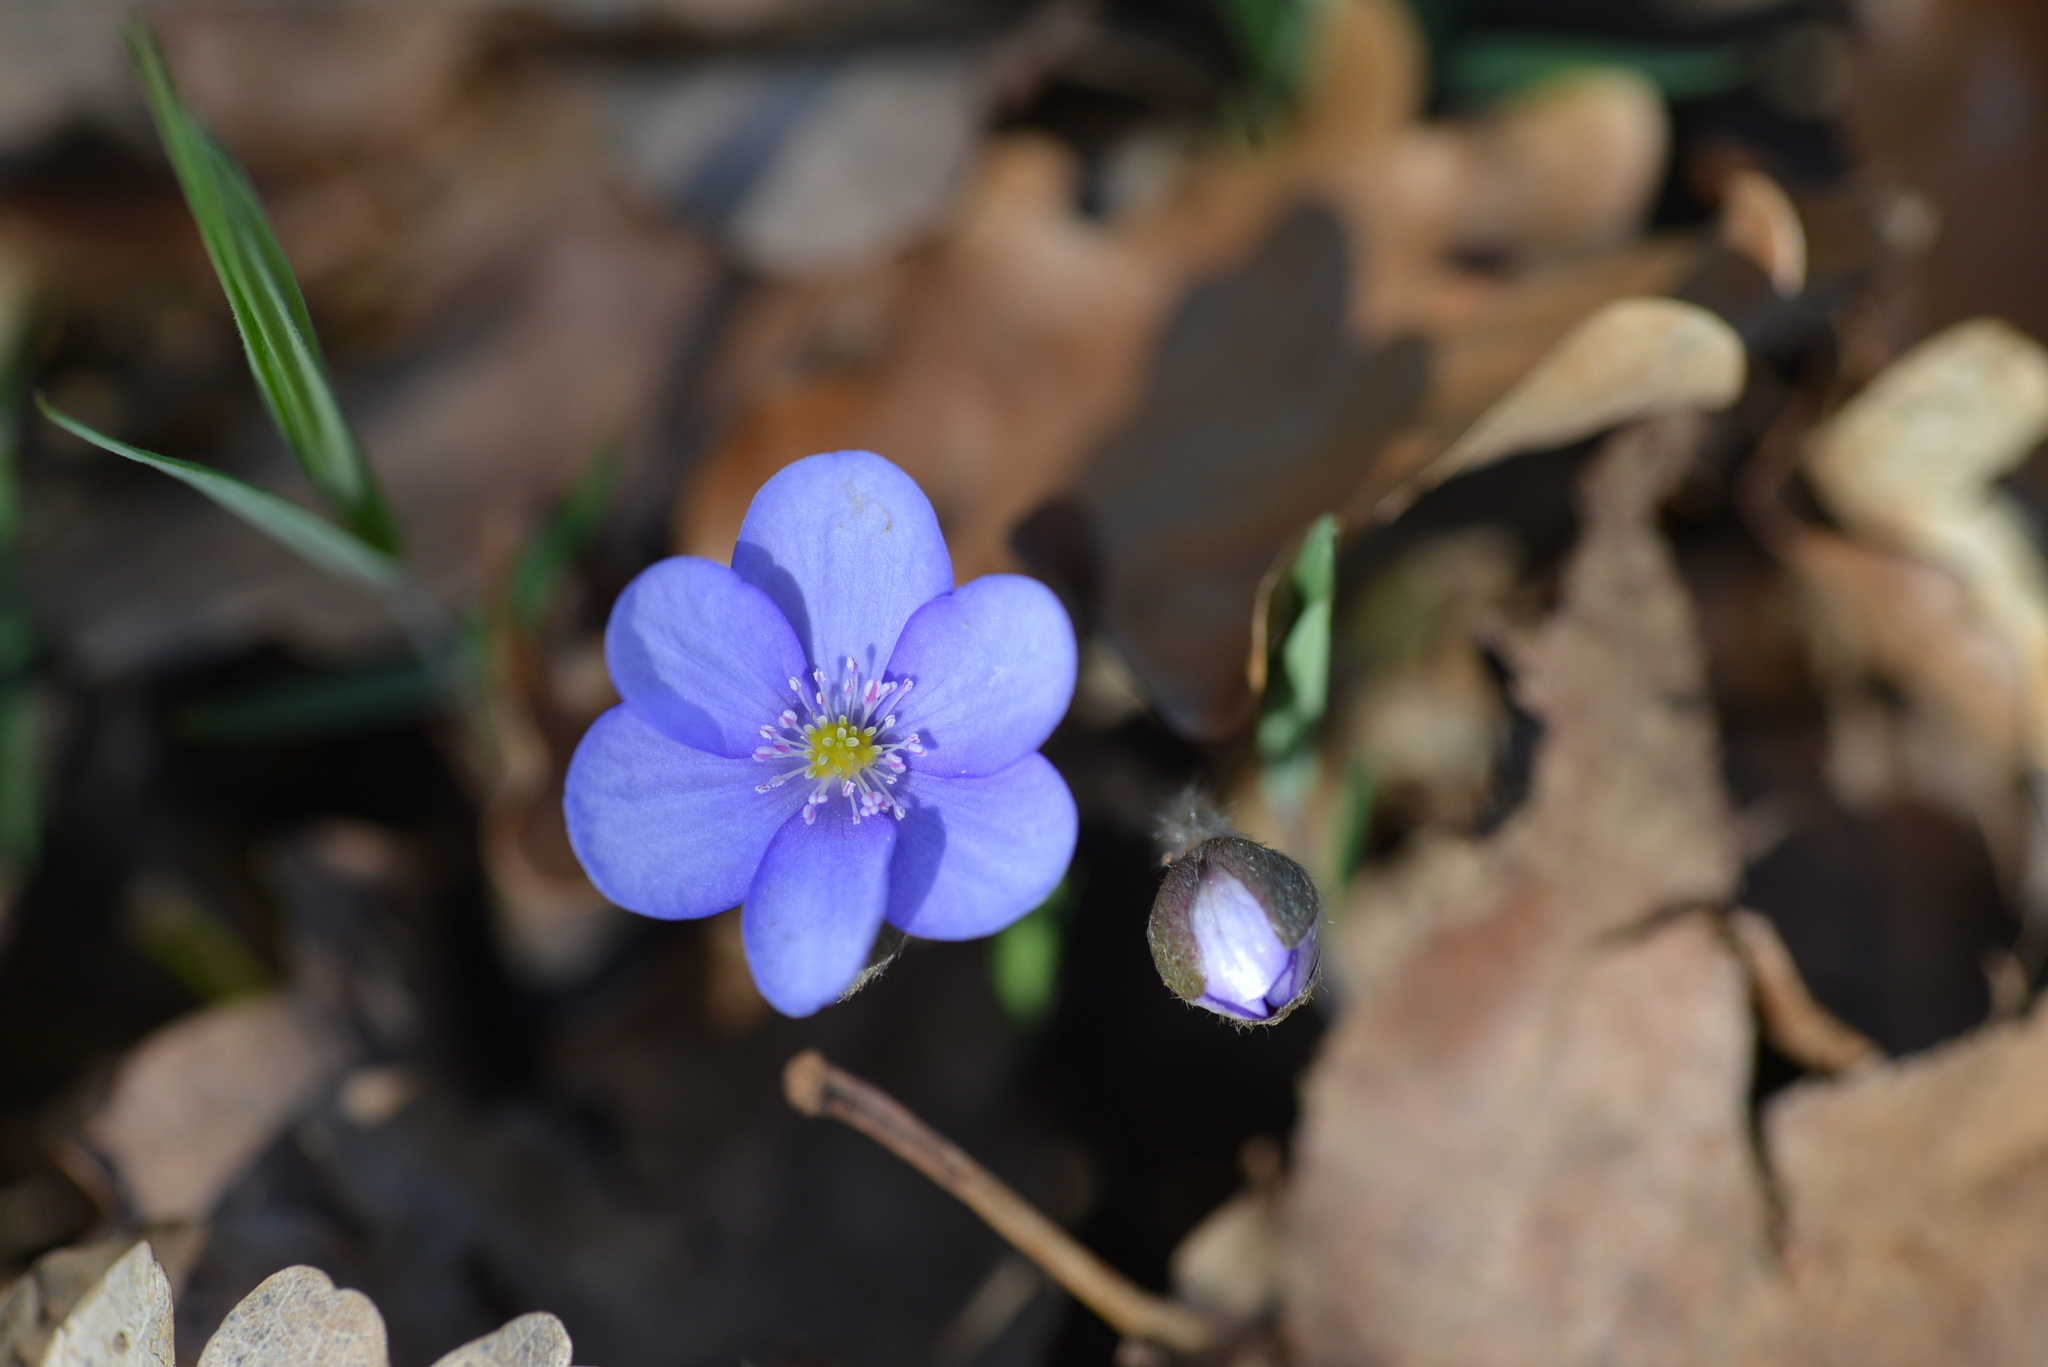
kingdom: Plantae
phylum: Tracheophyta
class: Magnoliopsida
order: Ranunculales
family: Ranunculaceae
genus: Hepatica
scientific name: Hepatica nobilis
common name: Liverleaf
